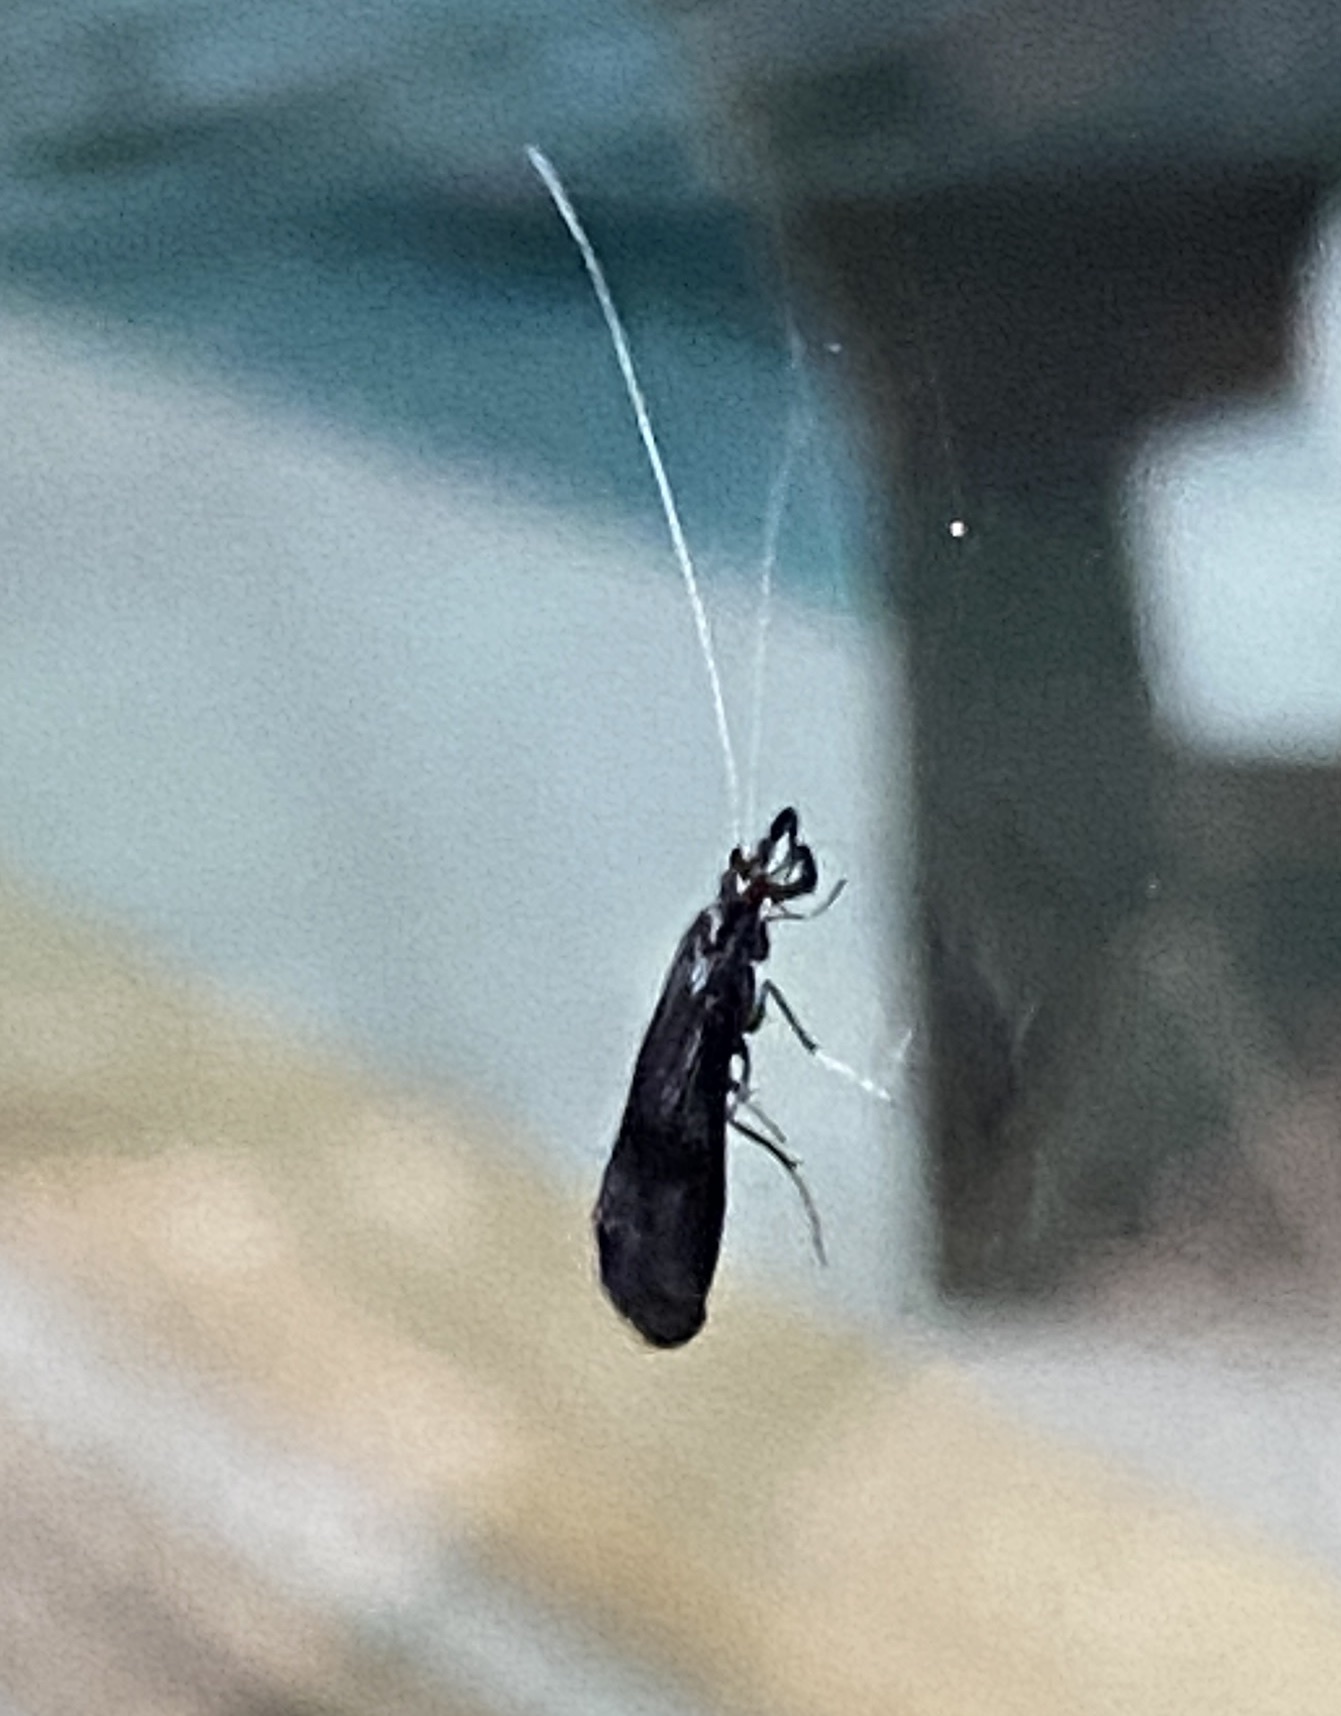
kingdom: Animalia
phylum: Arthropoda
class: Insecta
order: Trichoptera
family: Leptoceridae
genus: Mystacides
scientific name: Mystacides azureus
